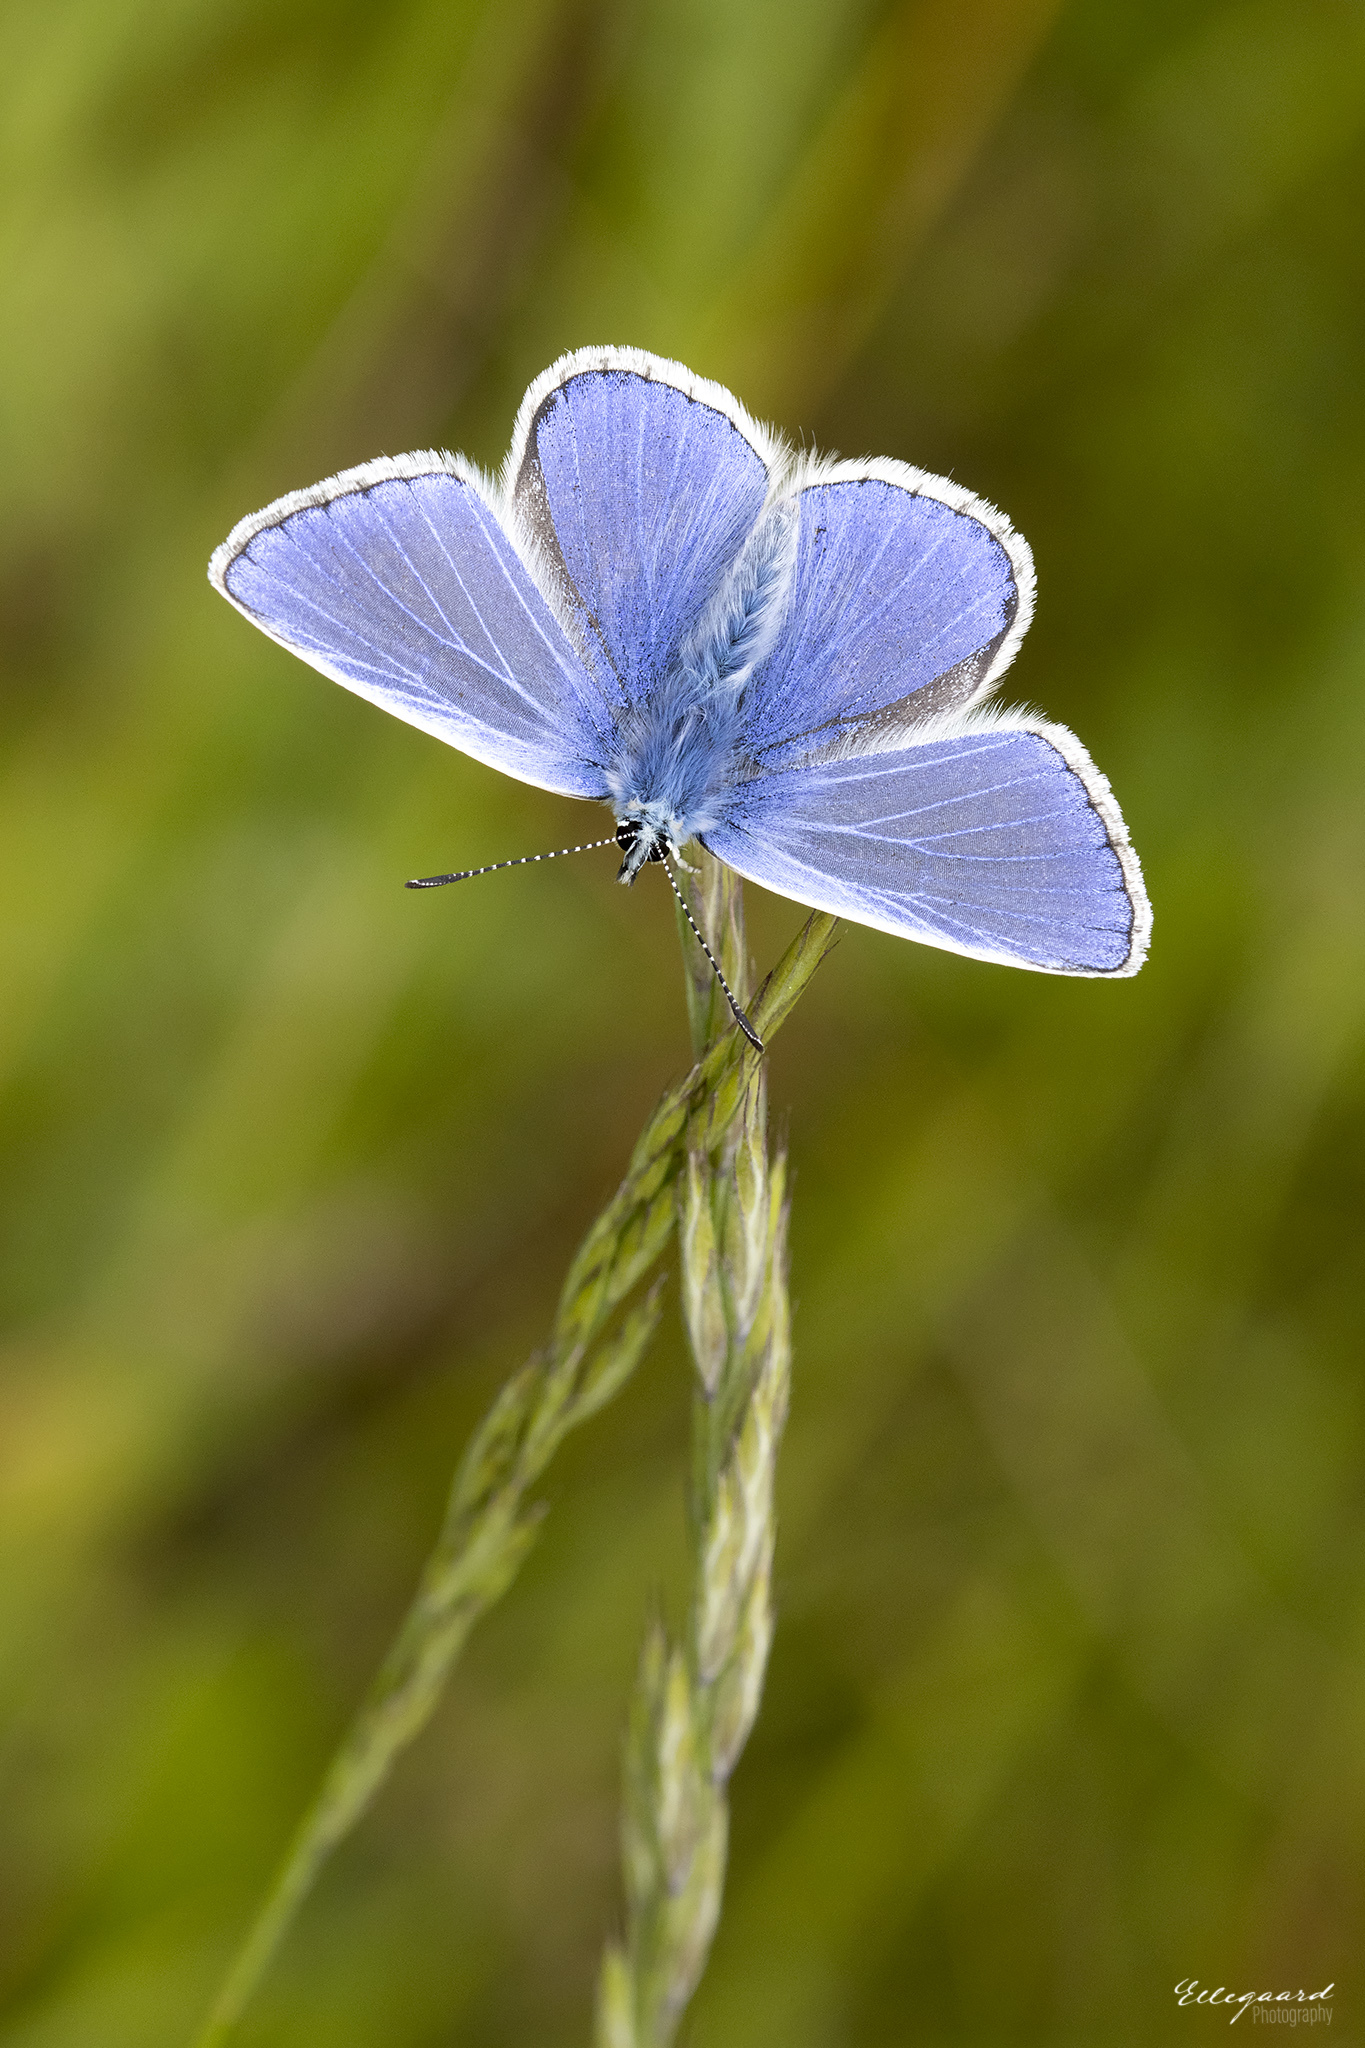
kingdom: Animalia
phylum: Arthropoda
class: Insecta
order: Lepidoptera
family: Lycaenidae
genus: Polyommatus
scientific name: Polyommatus icarus
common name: Common blue
